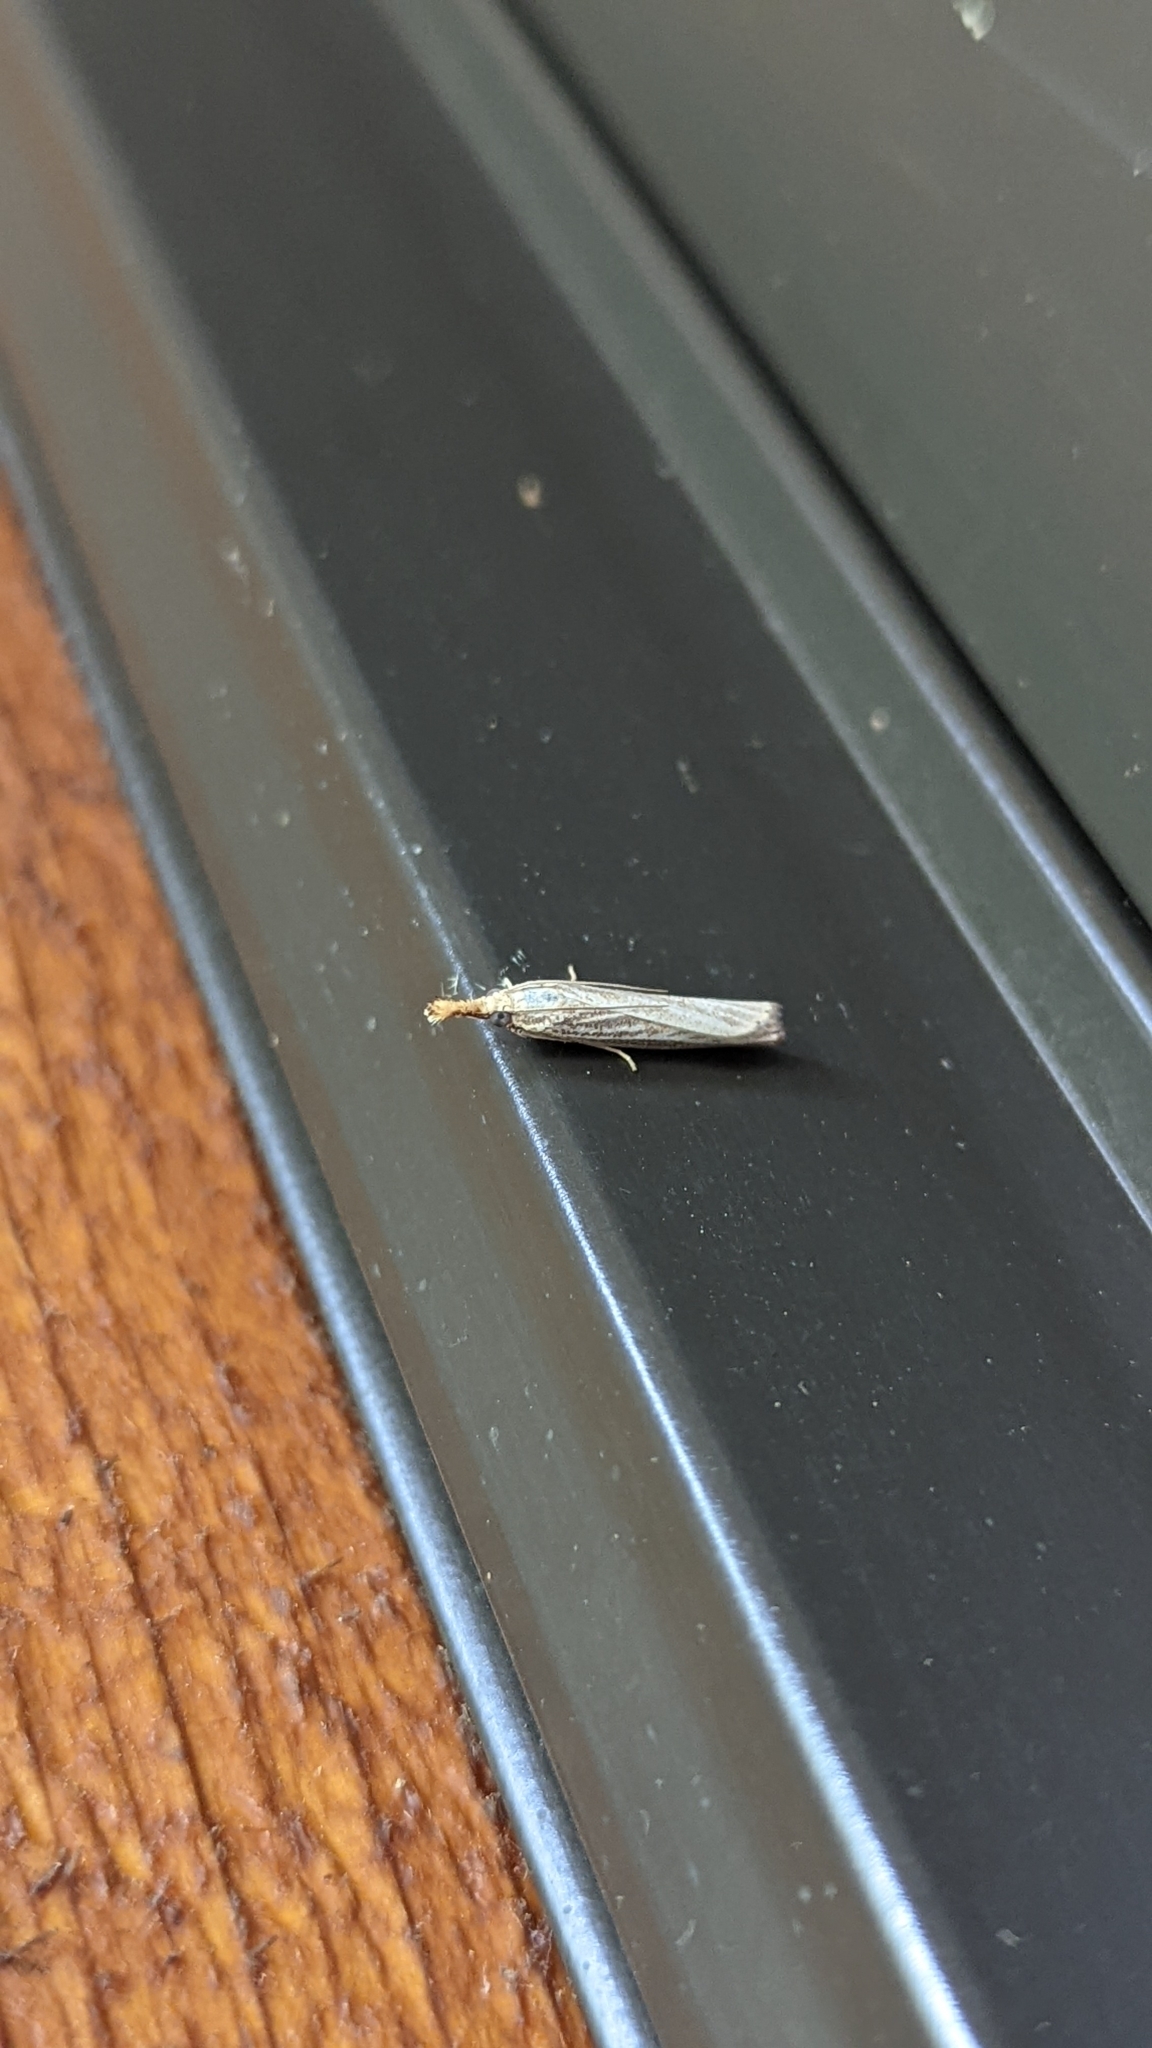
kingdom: Animalia
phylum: Arthropoda
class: Insecta
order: Lepidoptera
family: Crambidae
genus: Agriphila
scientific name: Agriphila vulgivagellus
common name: Vagabond crambus moth
